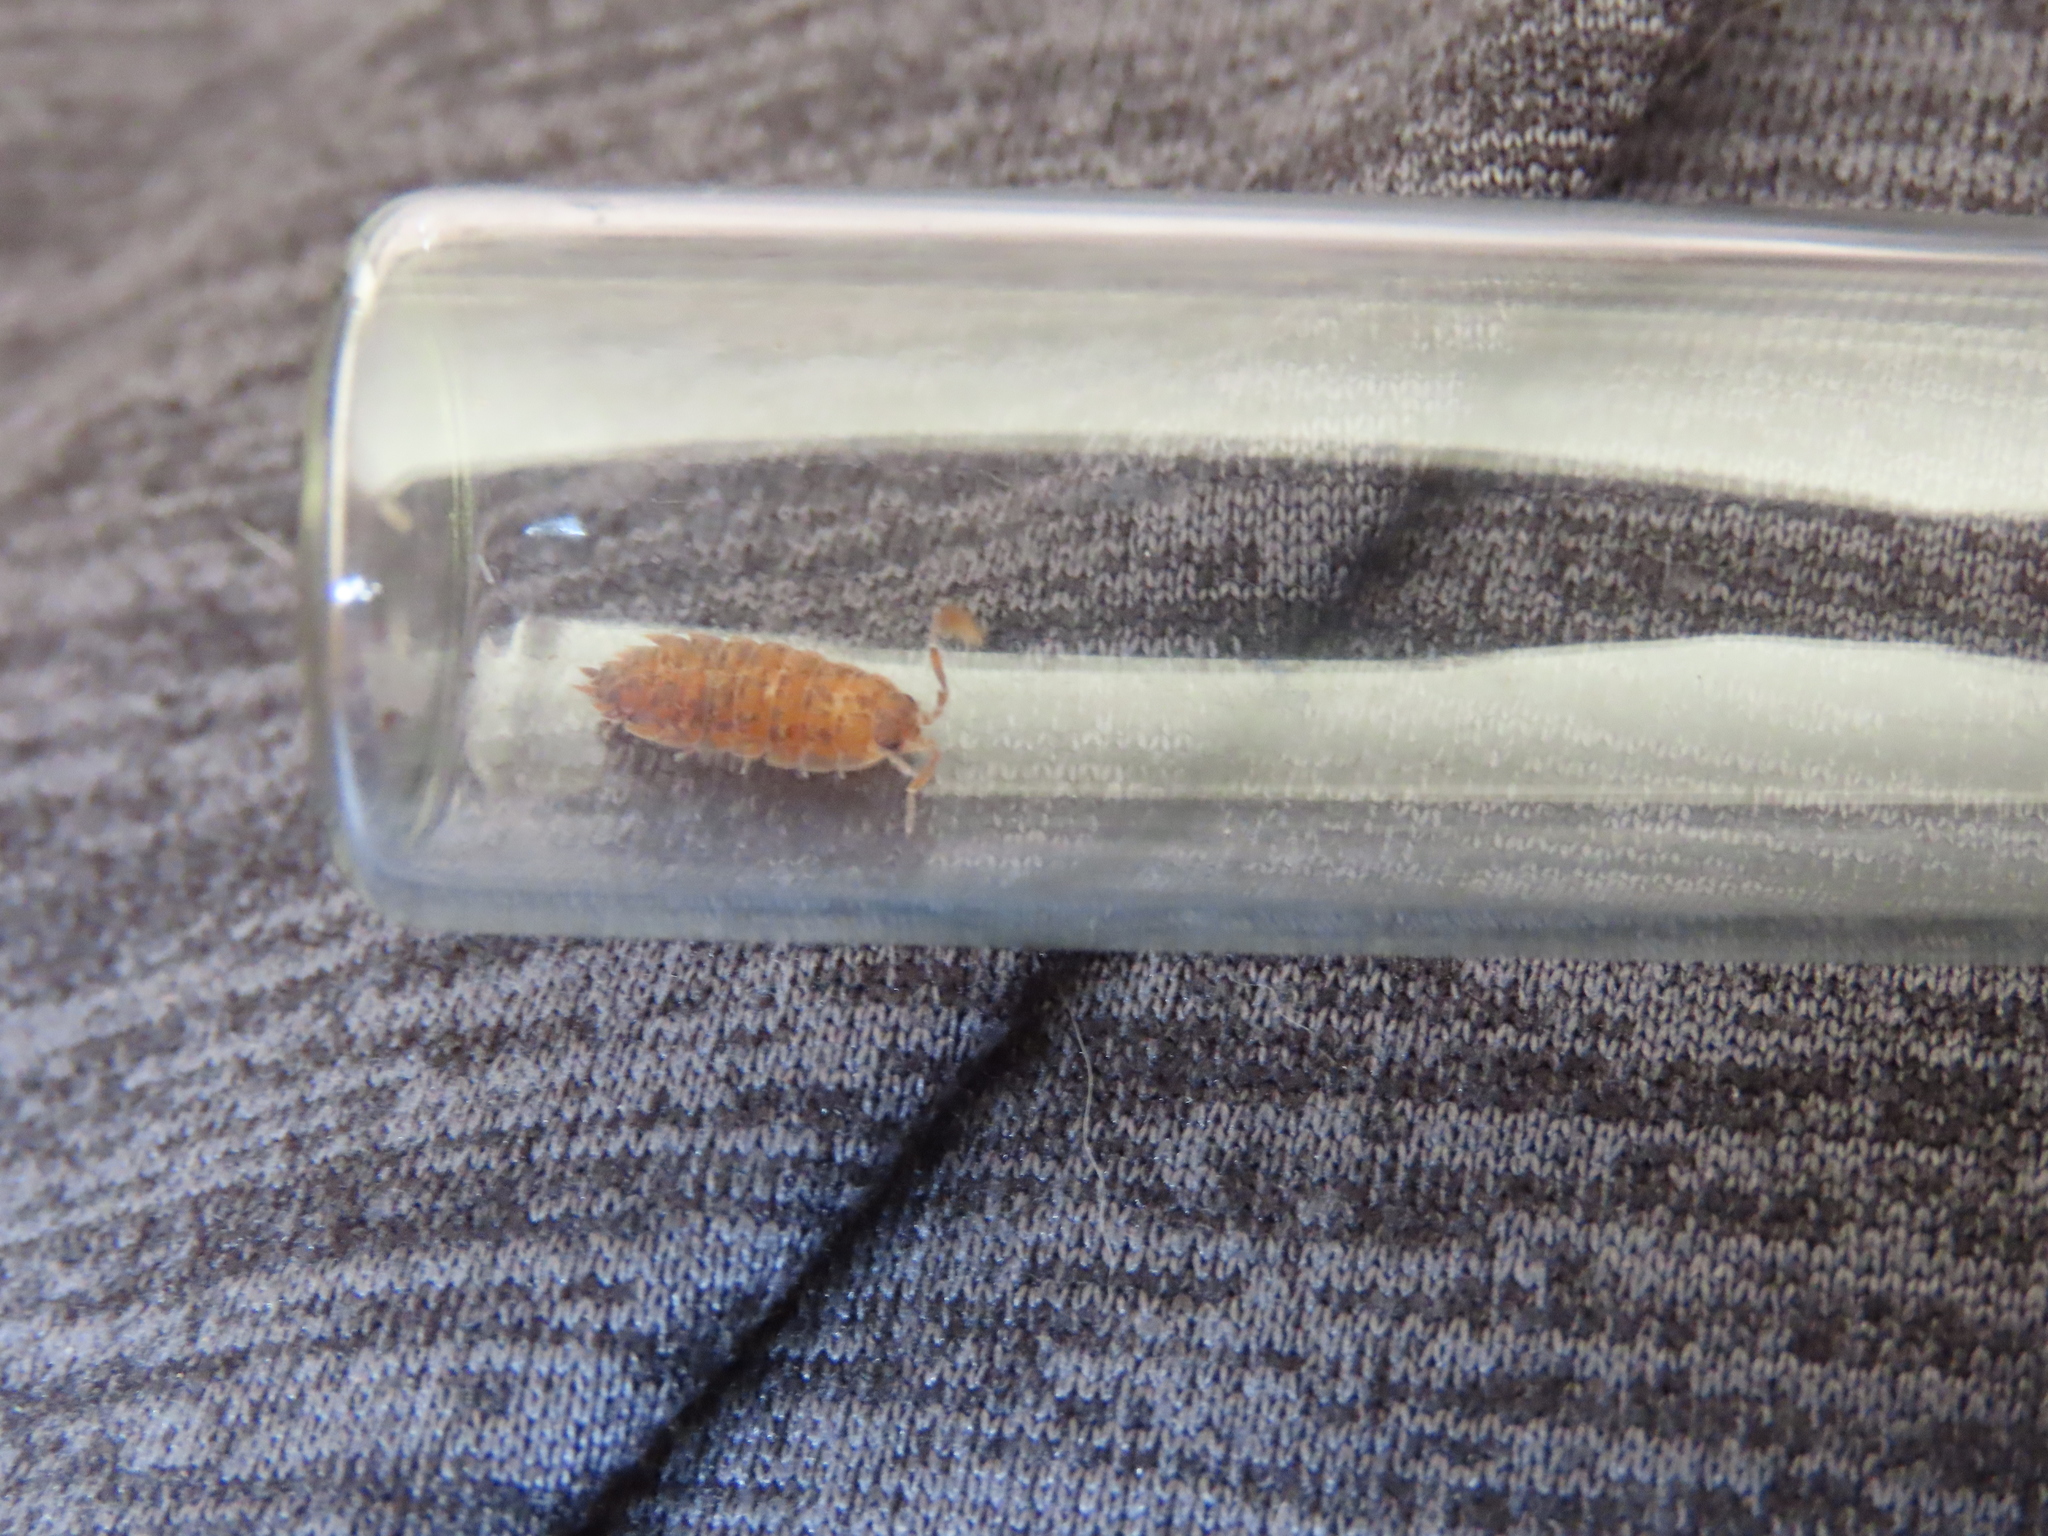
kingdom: Animalia
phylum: Arthropoda
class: Malacostraca
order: Isopoda
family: Porcellionidae
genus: Porcellio
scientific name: Porcellio scaber
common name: Common rough woodlouse
